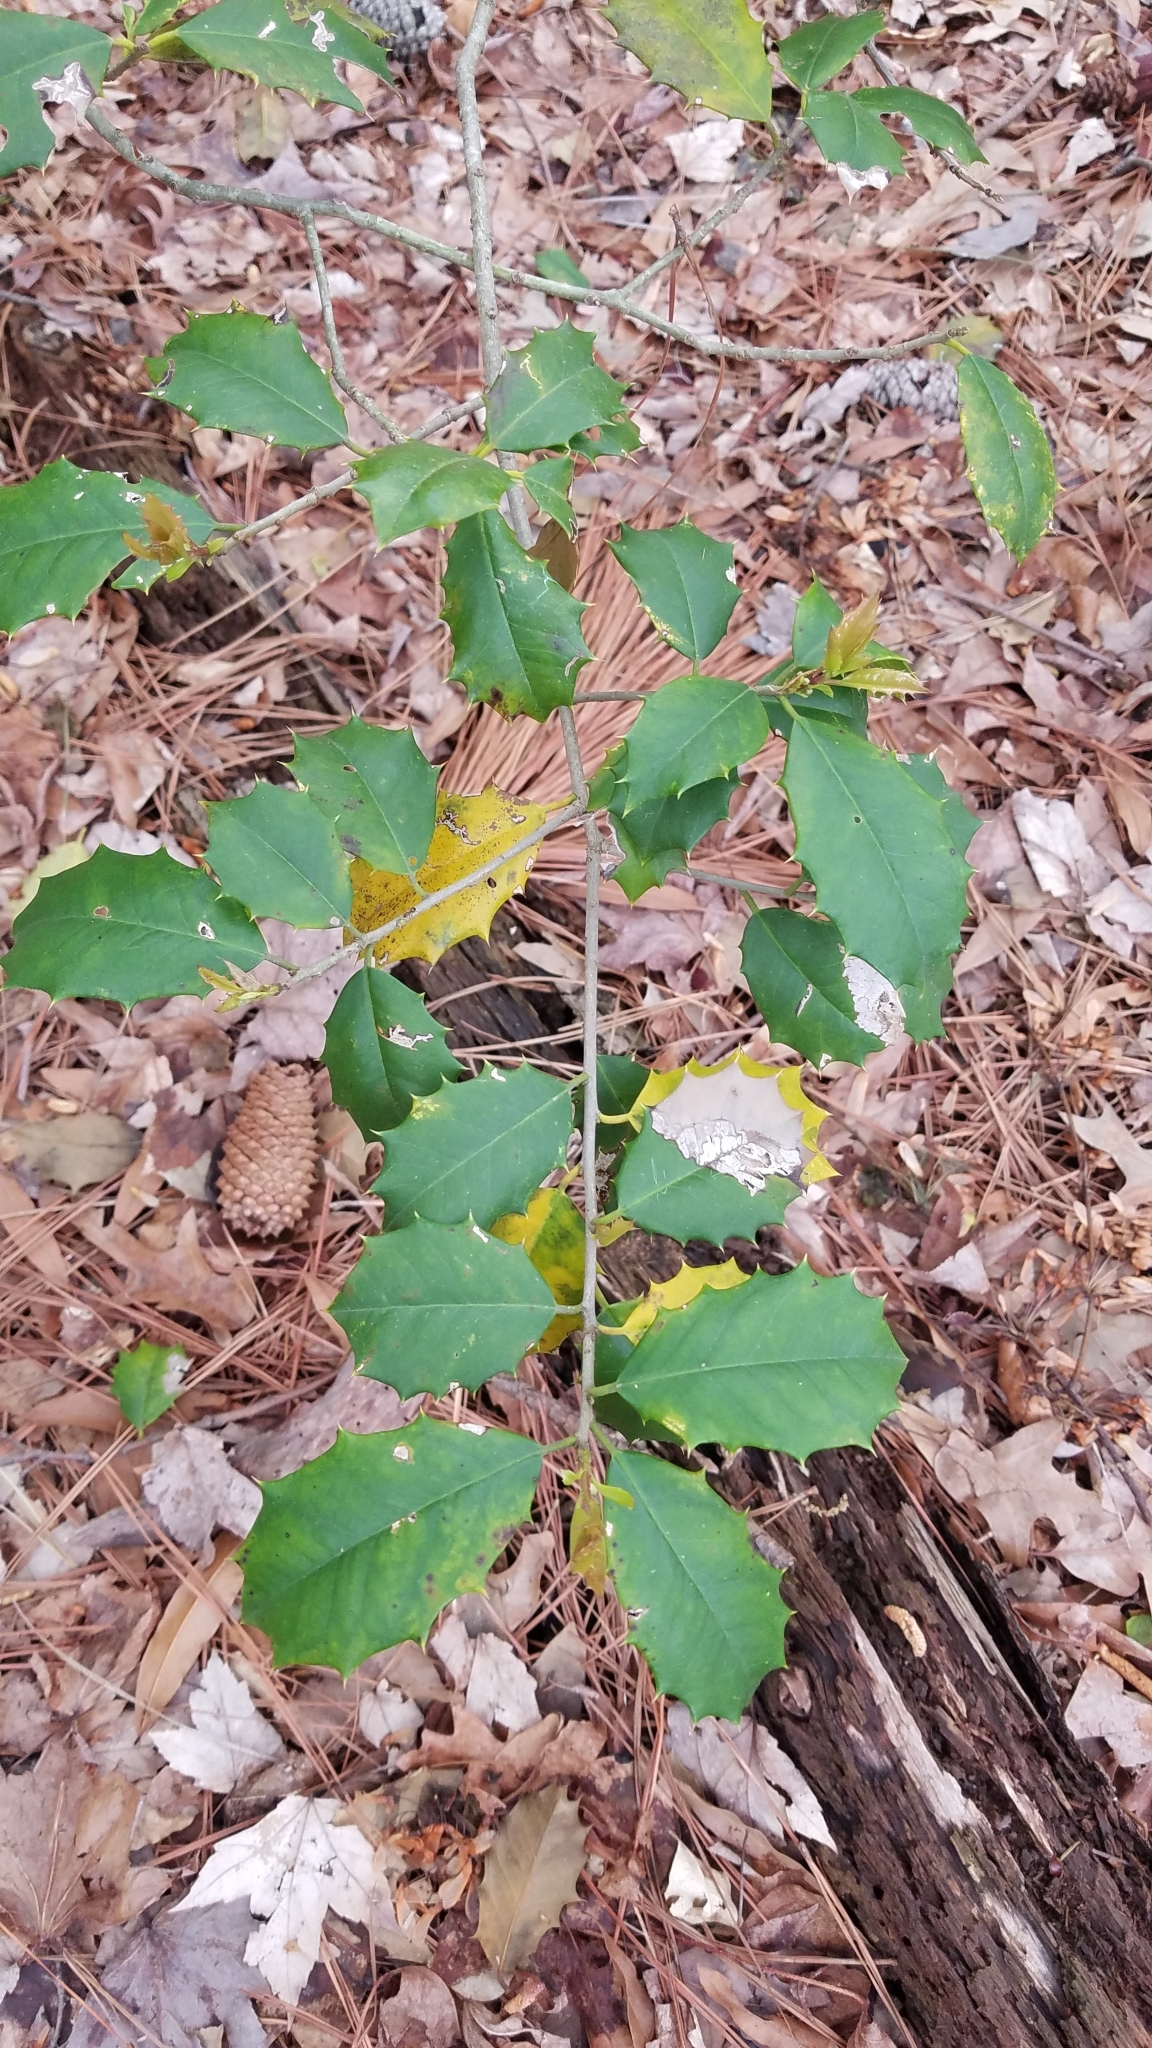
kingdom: Plantae
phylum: Tracheophyta
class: Magnoliopsida
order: Aquifoliales
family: Aquifoliaceae
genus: Ilex
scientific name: Ilex opaca
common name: American holly
